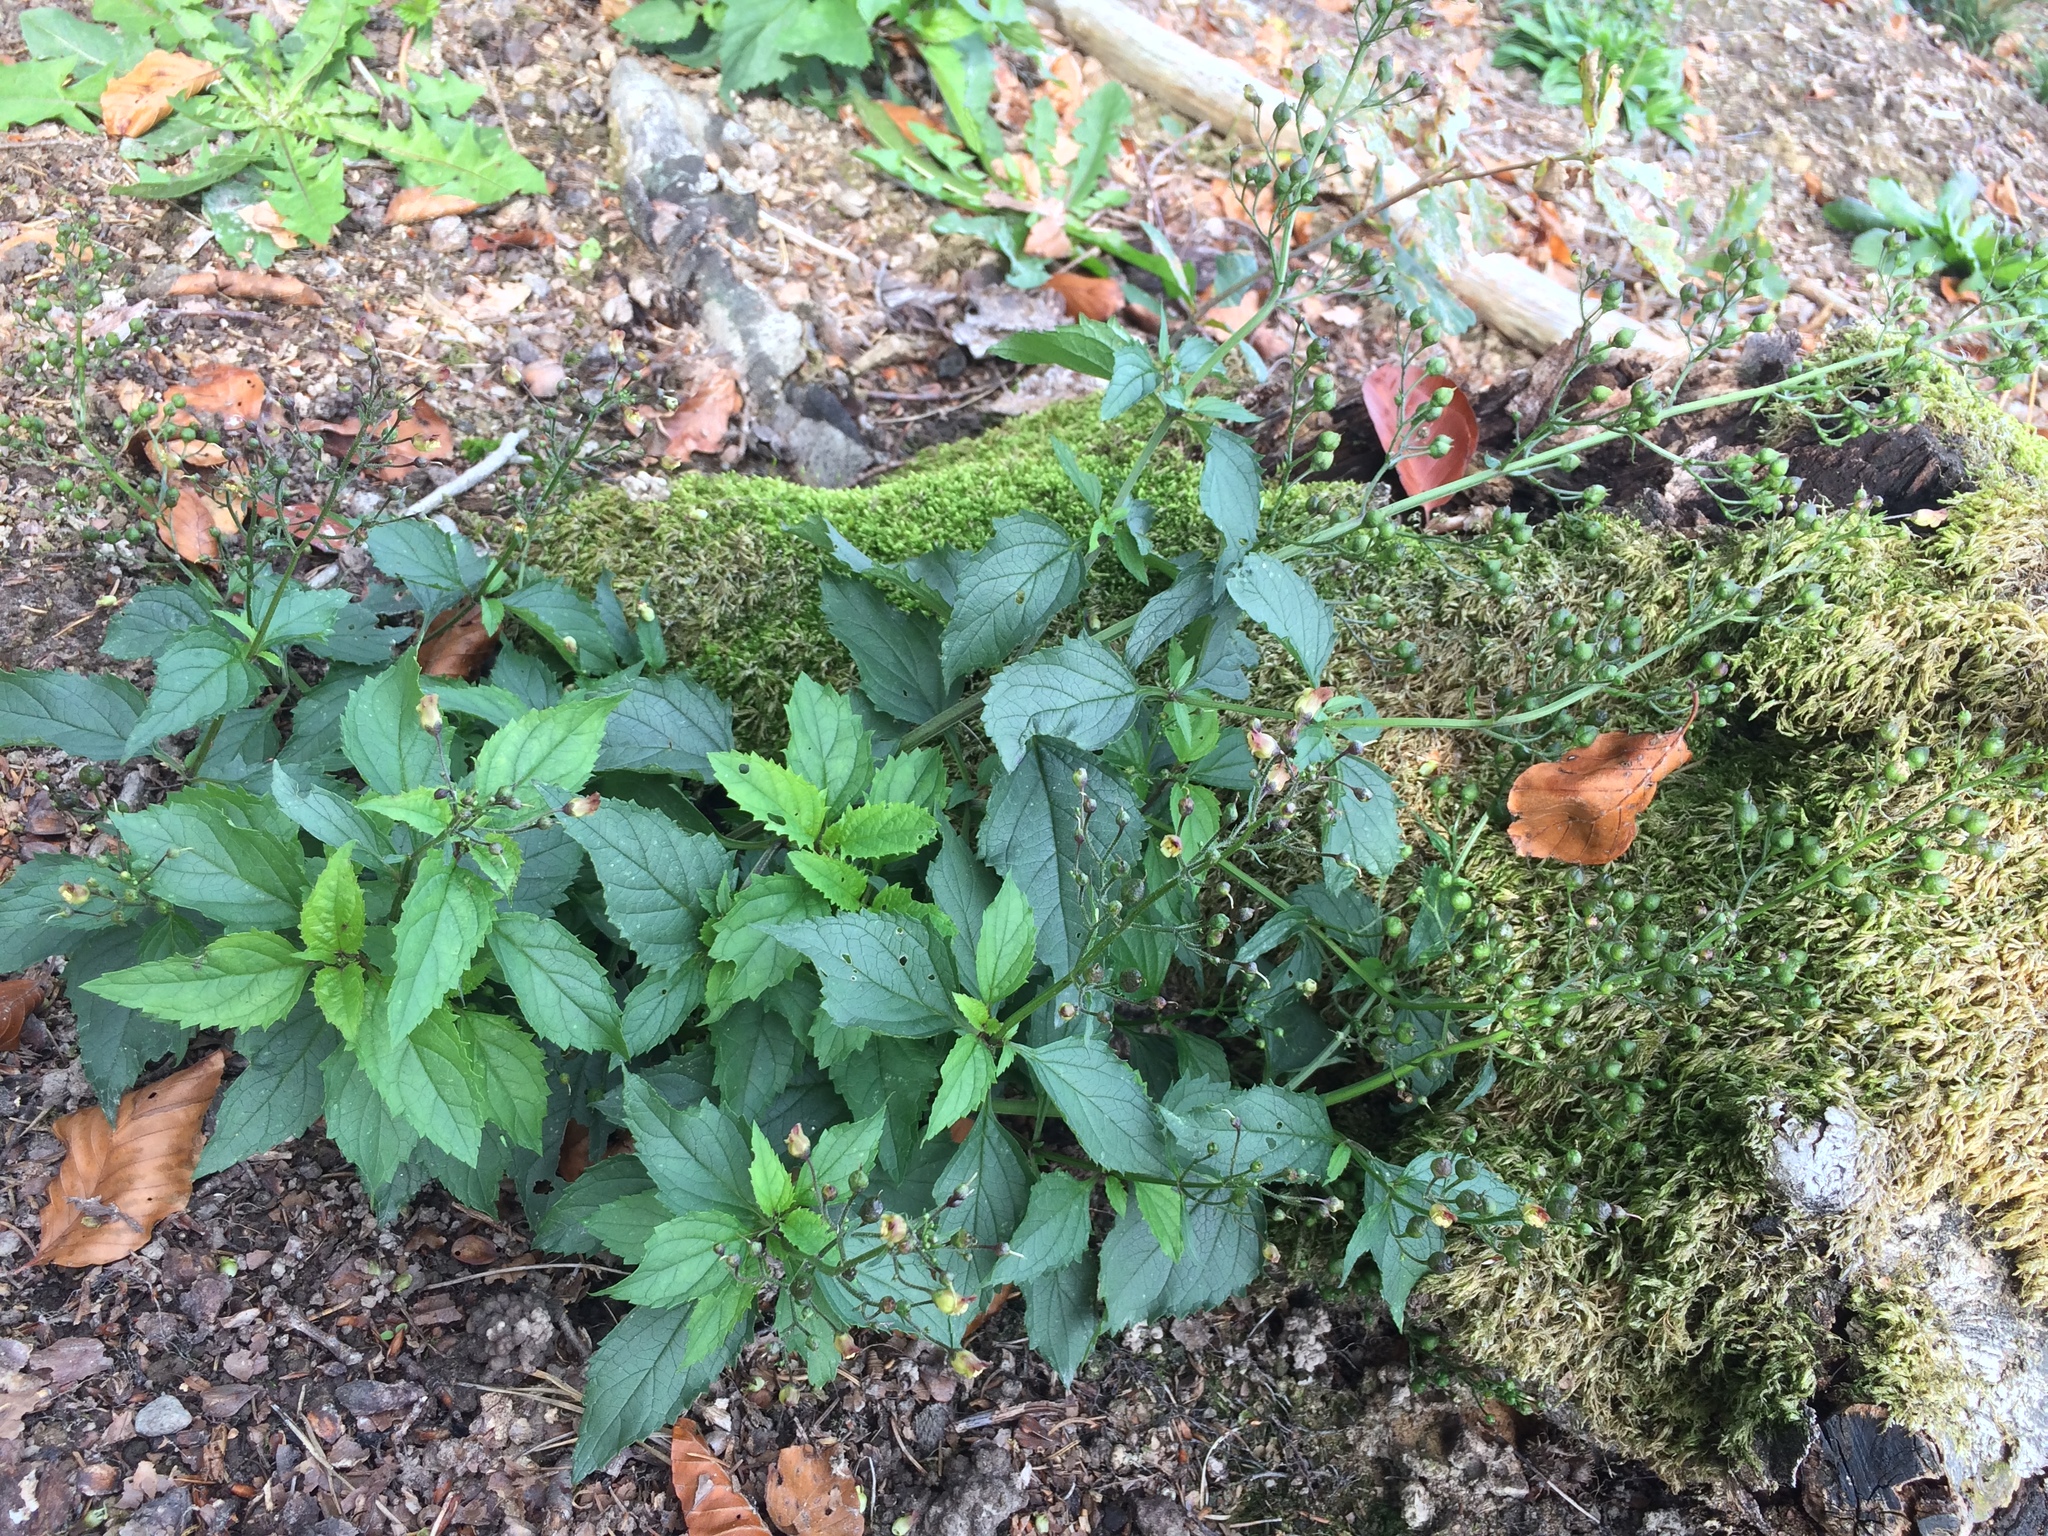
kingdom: Plantae
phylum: Tracheophyta
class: Magnoliopsida
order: Lamiales
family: Scrophulariaceae
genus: Scrophularia
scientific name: Scrophularia nodosa
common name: Common figwort
